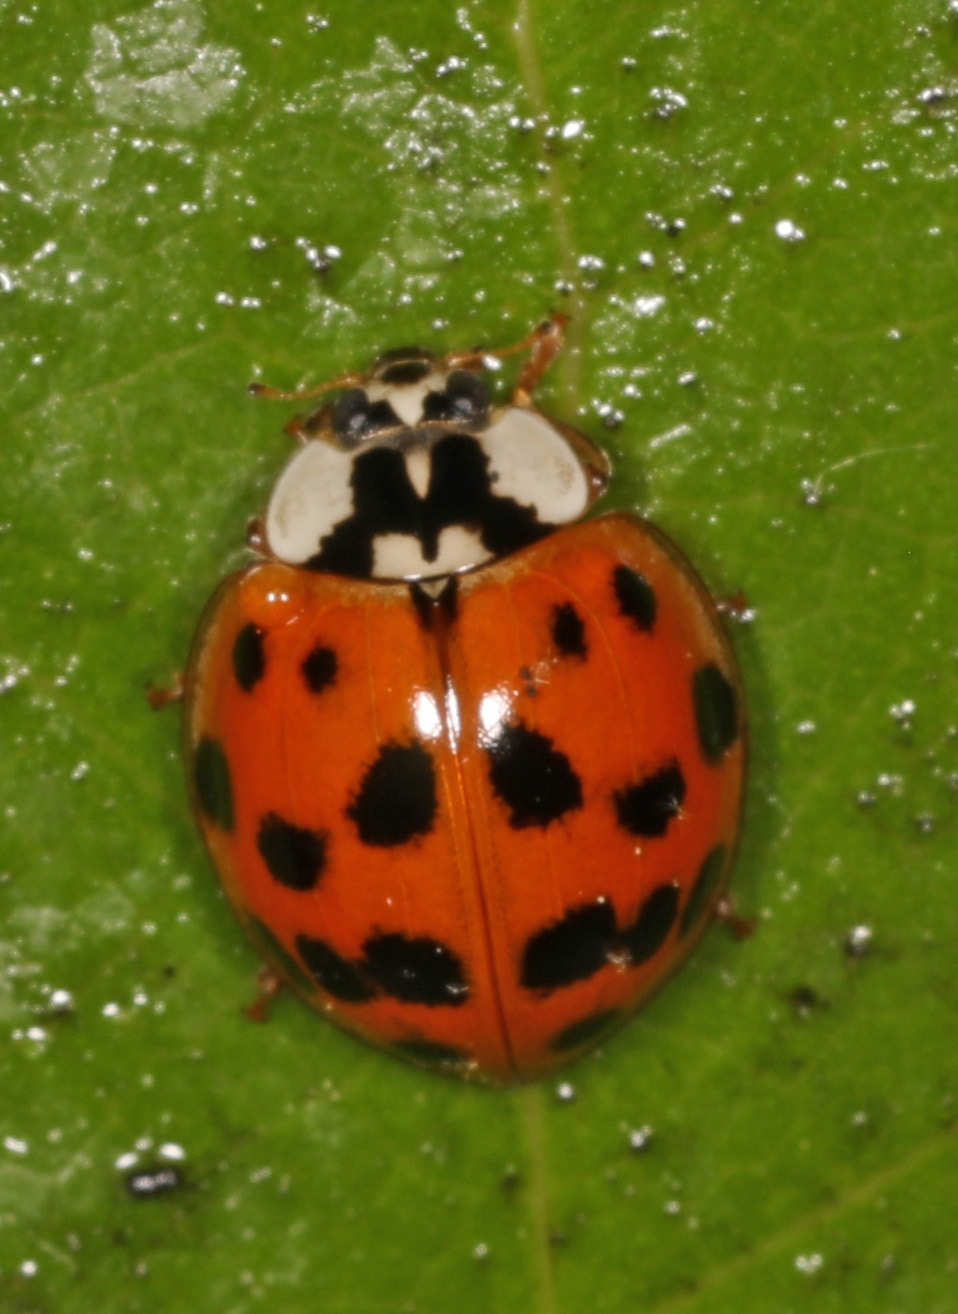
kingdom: Animalia
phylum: Arthropoda
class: Insecta
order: Coleoptera
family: Coccinellidae
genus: Harmonia
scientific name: Harmonia axyridis
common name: Harlequin ladybird
